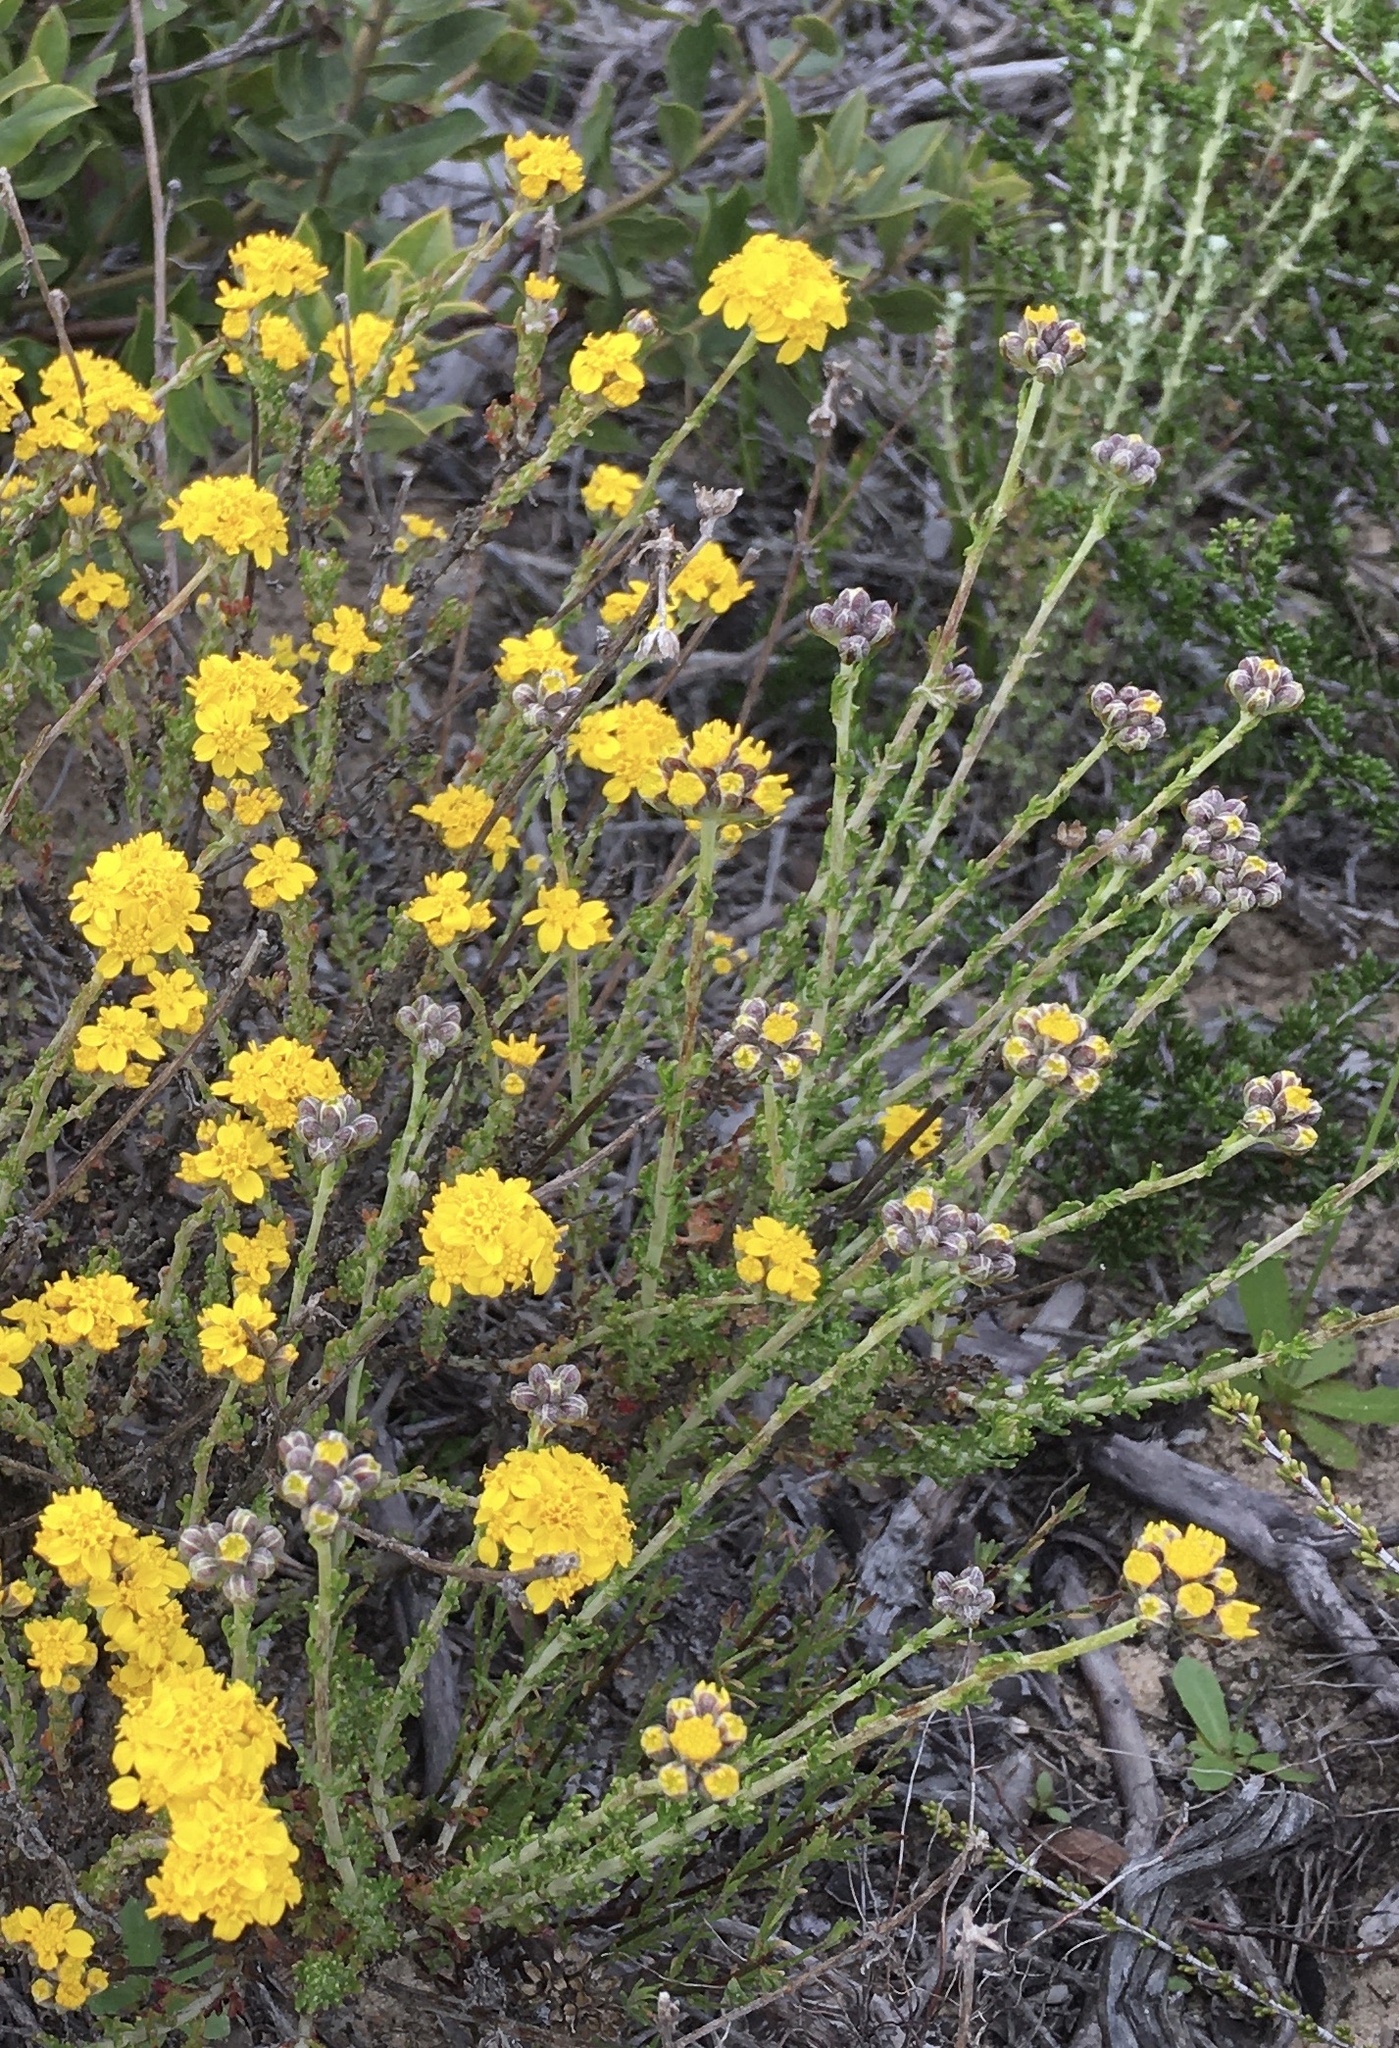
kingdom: Plantae
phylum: Tracheophyta
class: Magnoliopsida
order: Asterales
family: Asteraceae
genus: Eriophyllum
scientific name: Eriophyllum confertiflorum
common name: Golden-yarrow
